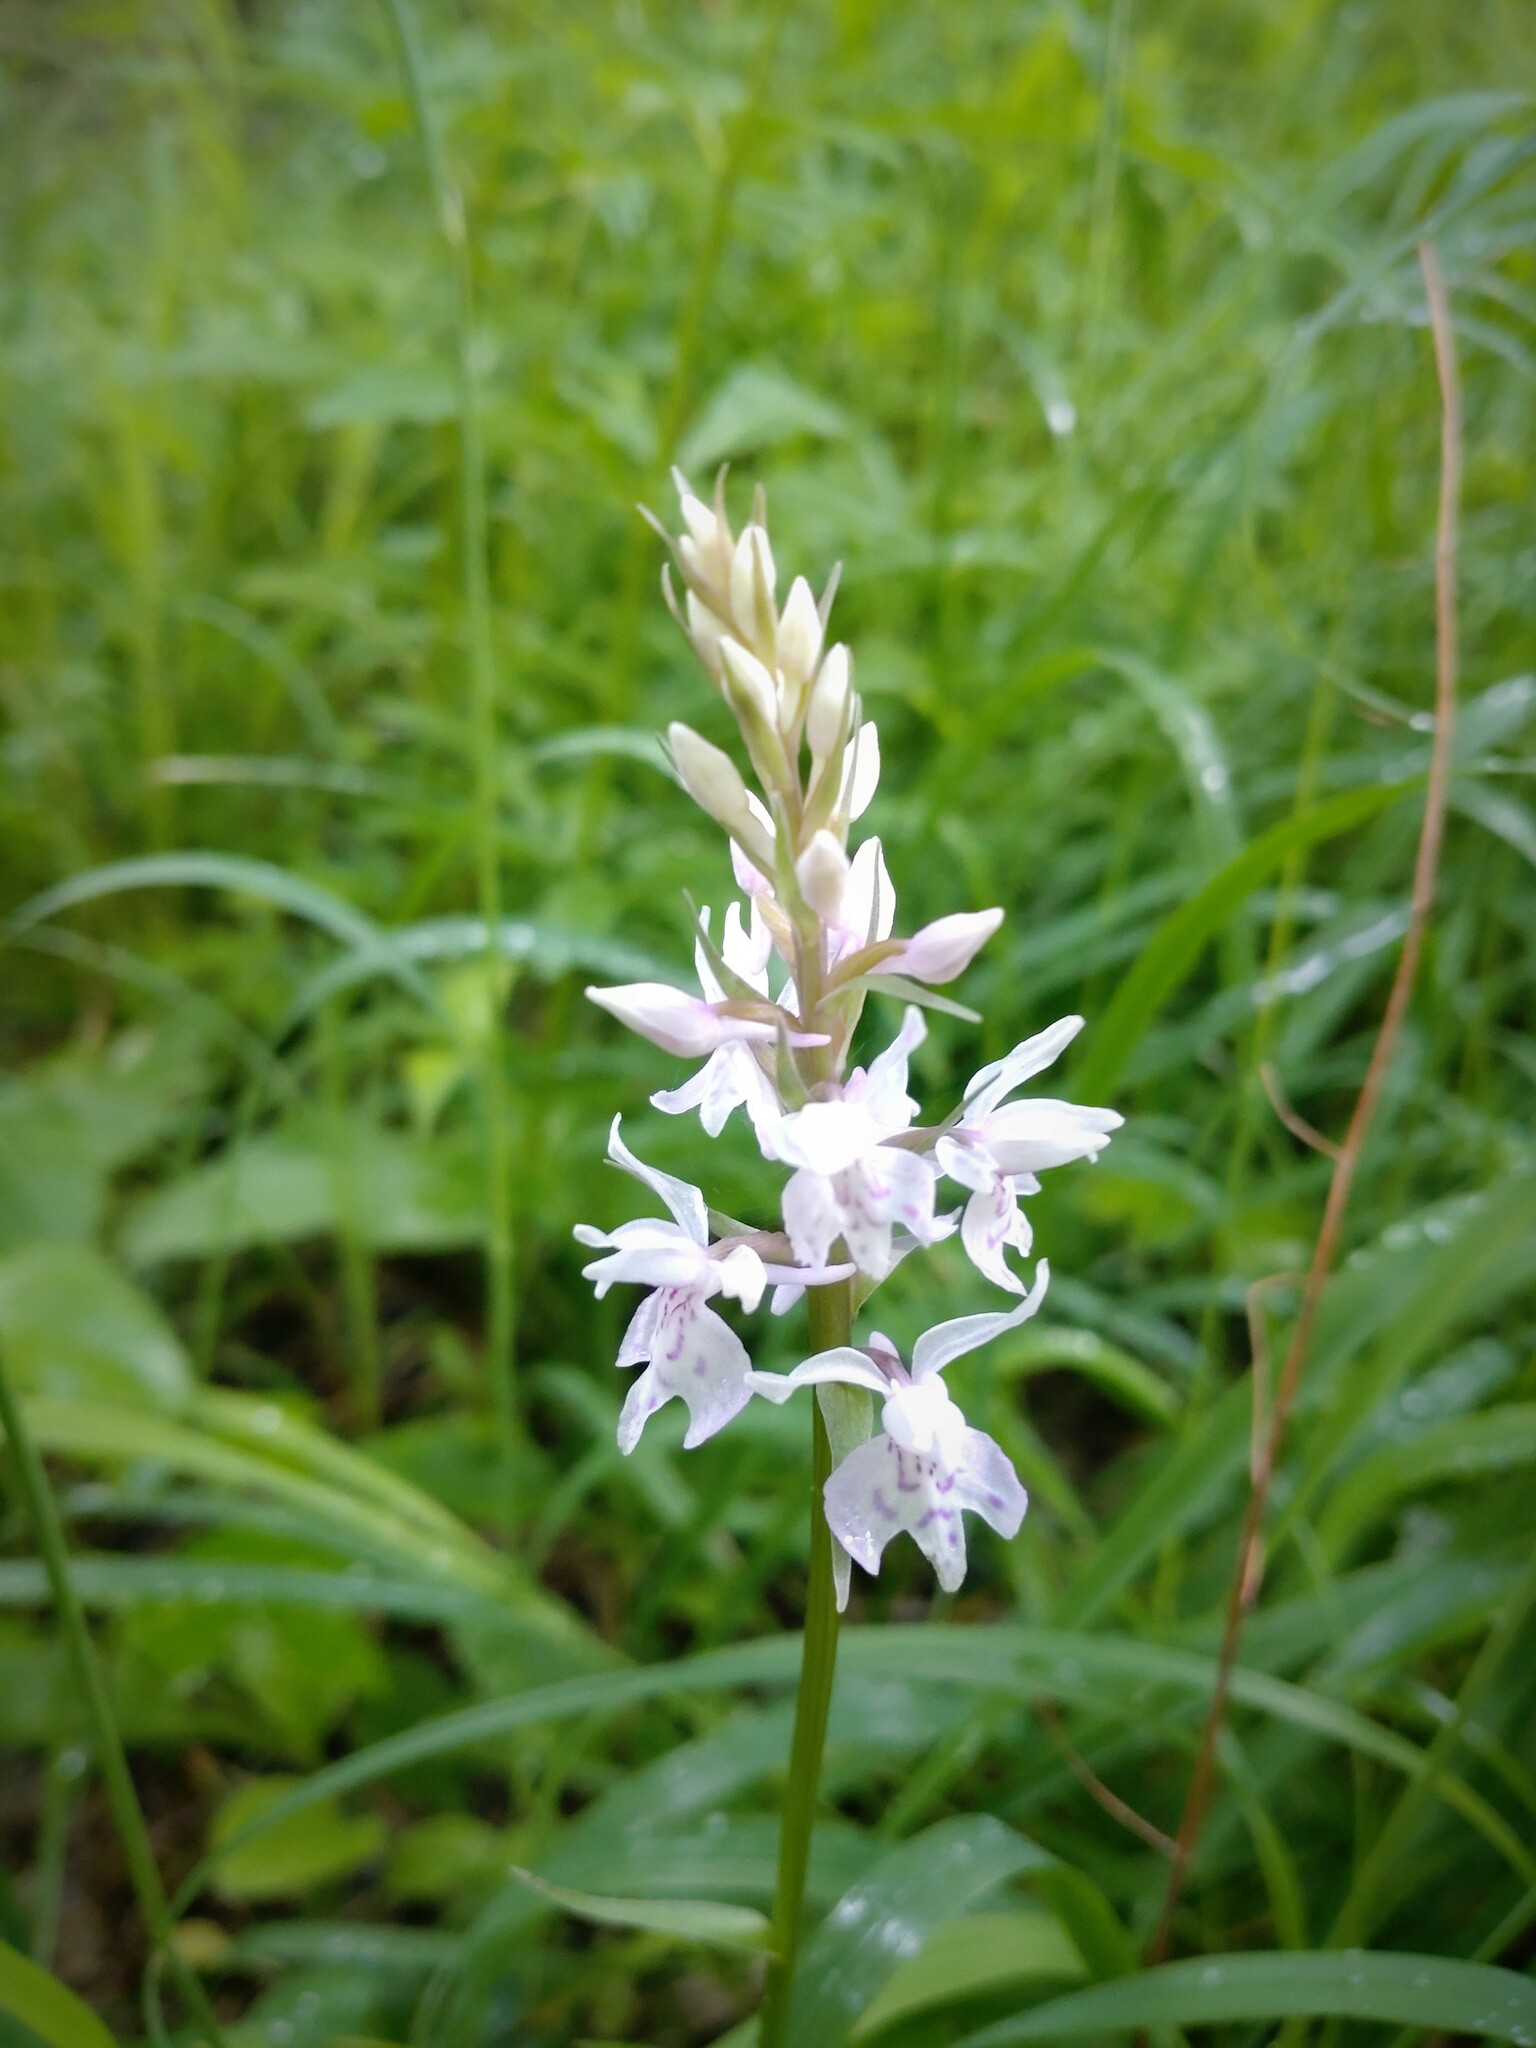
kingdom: Plantae
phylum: Tracheophyta
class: Liliopsida
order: Asparagales
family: Orchidaceae
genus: Dactylorhiza
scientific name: Dactylorhiza maculata
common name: Heath spotted-orchid
